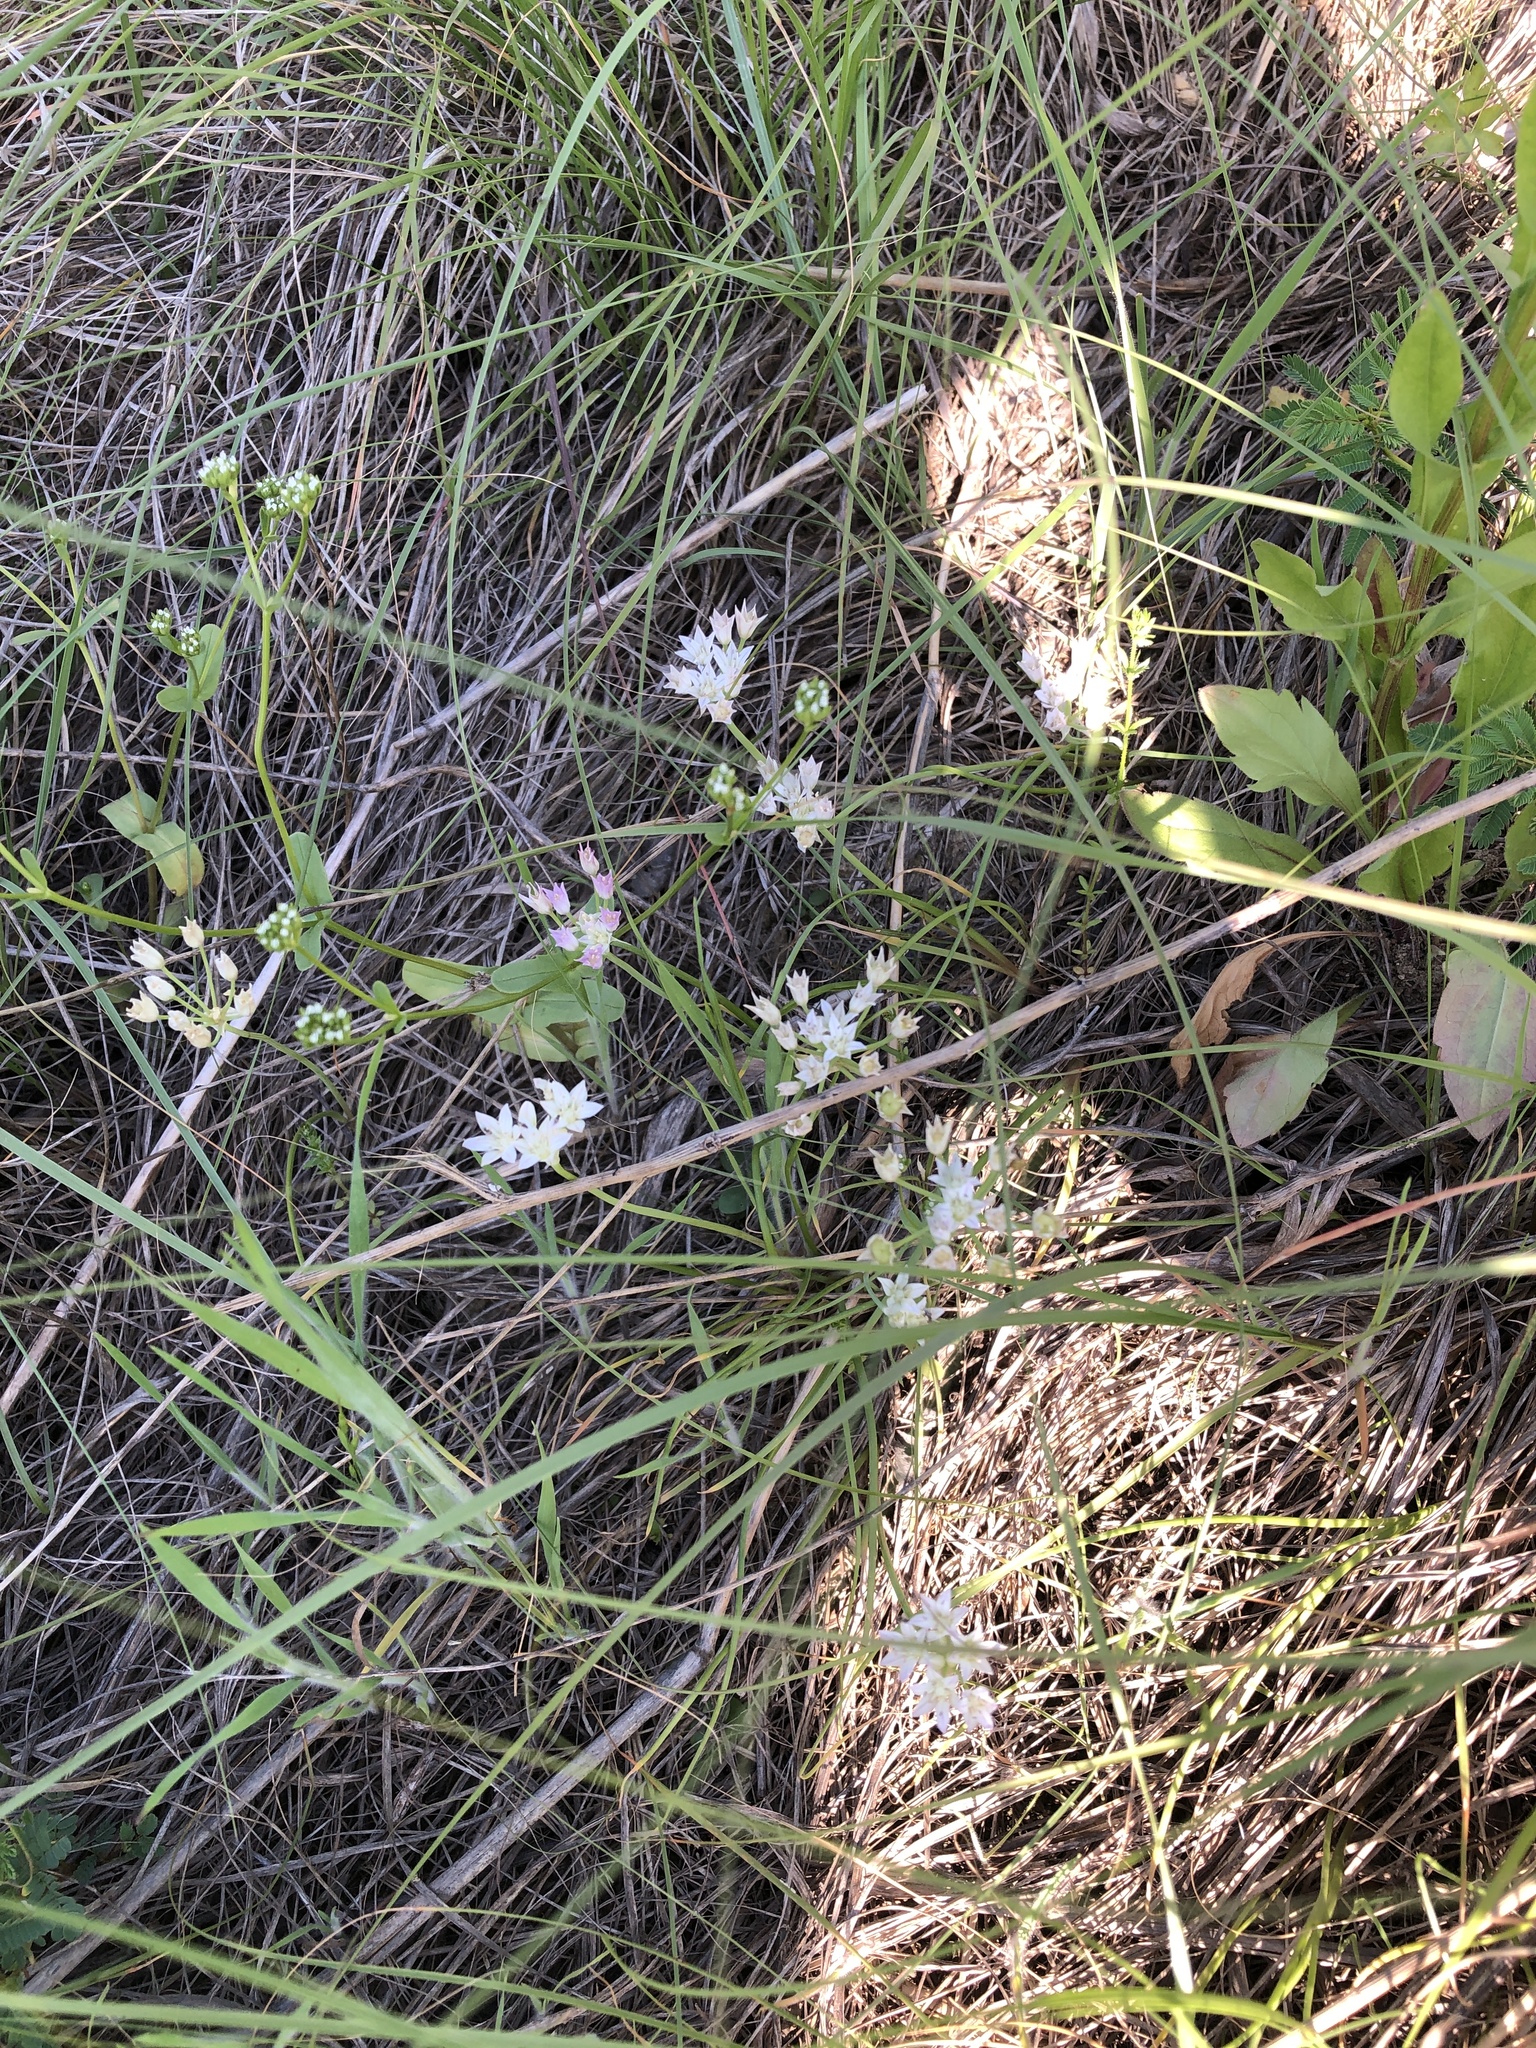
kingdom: Plantae
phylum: Tracheophyta
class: Liliopsida
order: Asparagales
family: Amaryllidaceae
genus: Allium
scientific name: Allium drummondii
